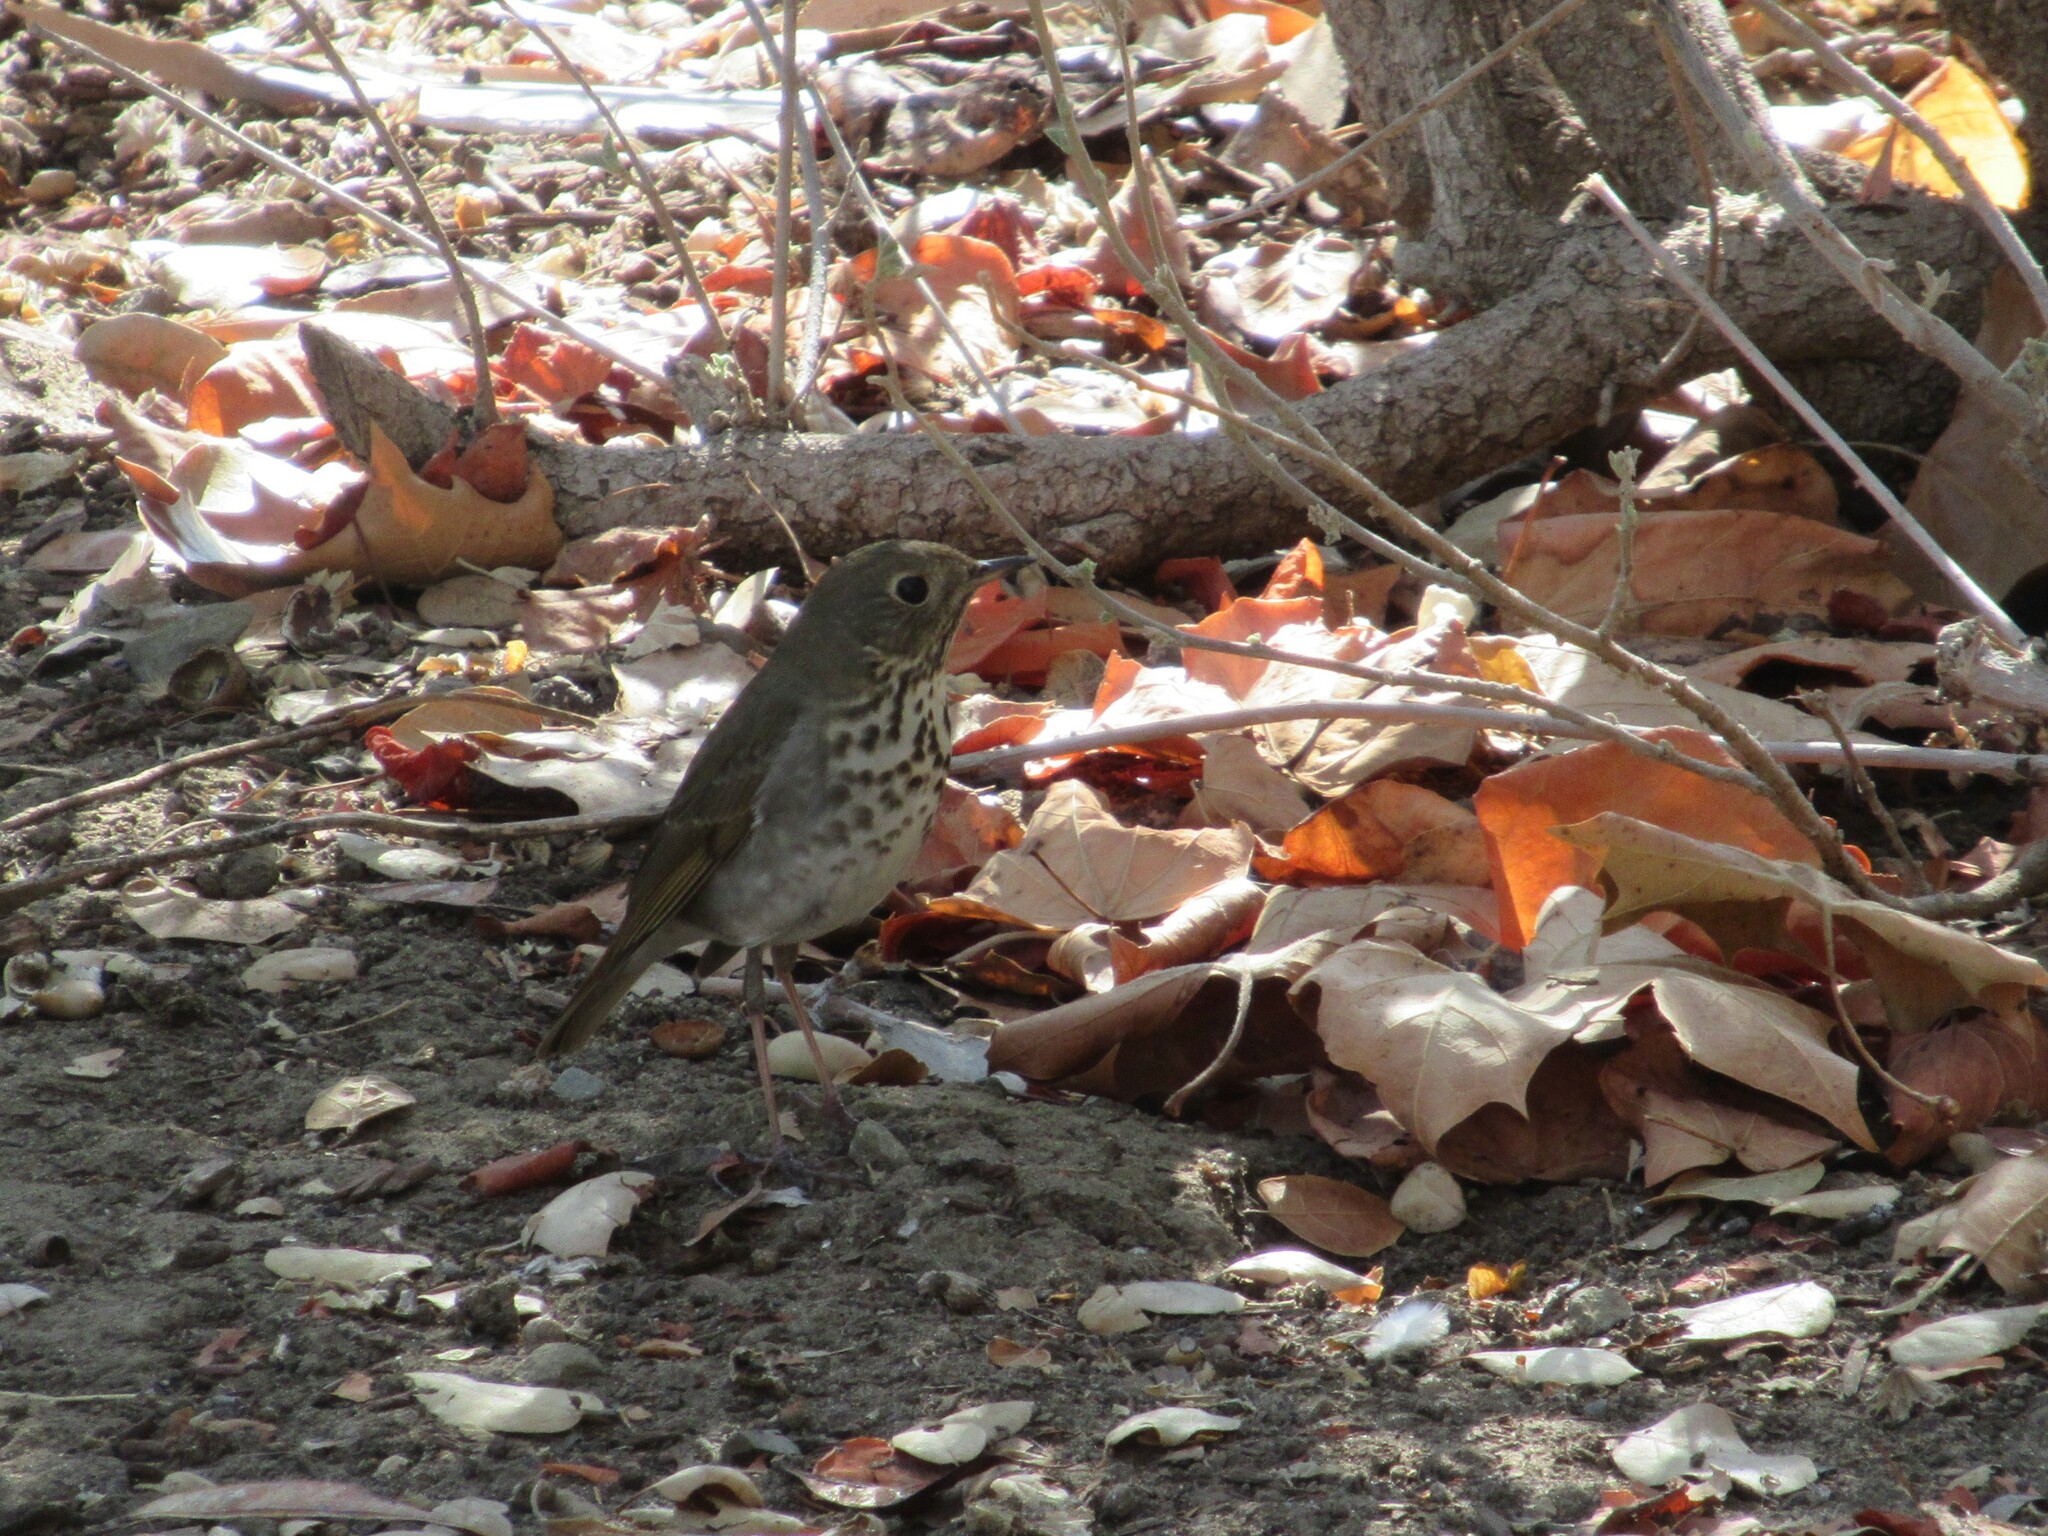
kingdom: Animalia
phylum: Chordata
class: Aves
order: Passeriformes
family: Turdidae
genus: Catharus
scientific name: Catharus guttatus
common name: Hermit thrush
